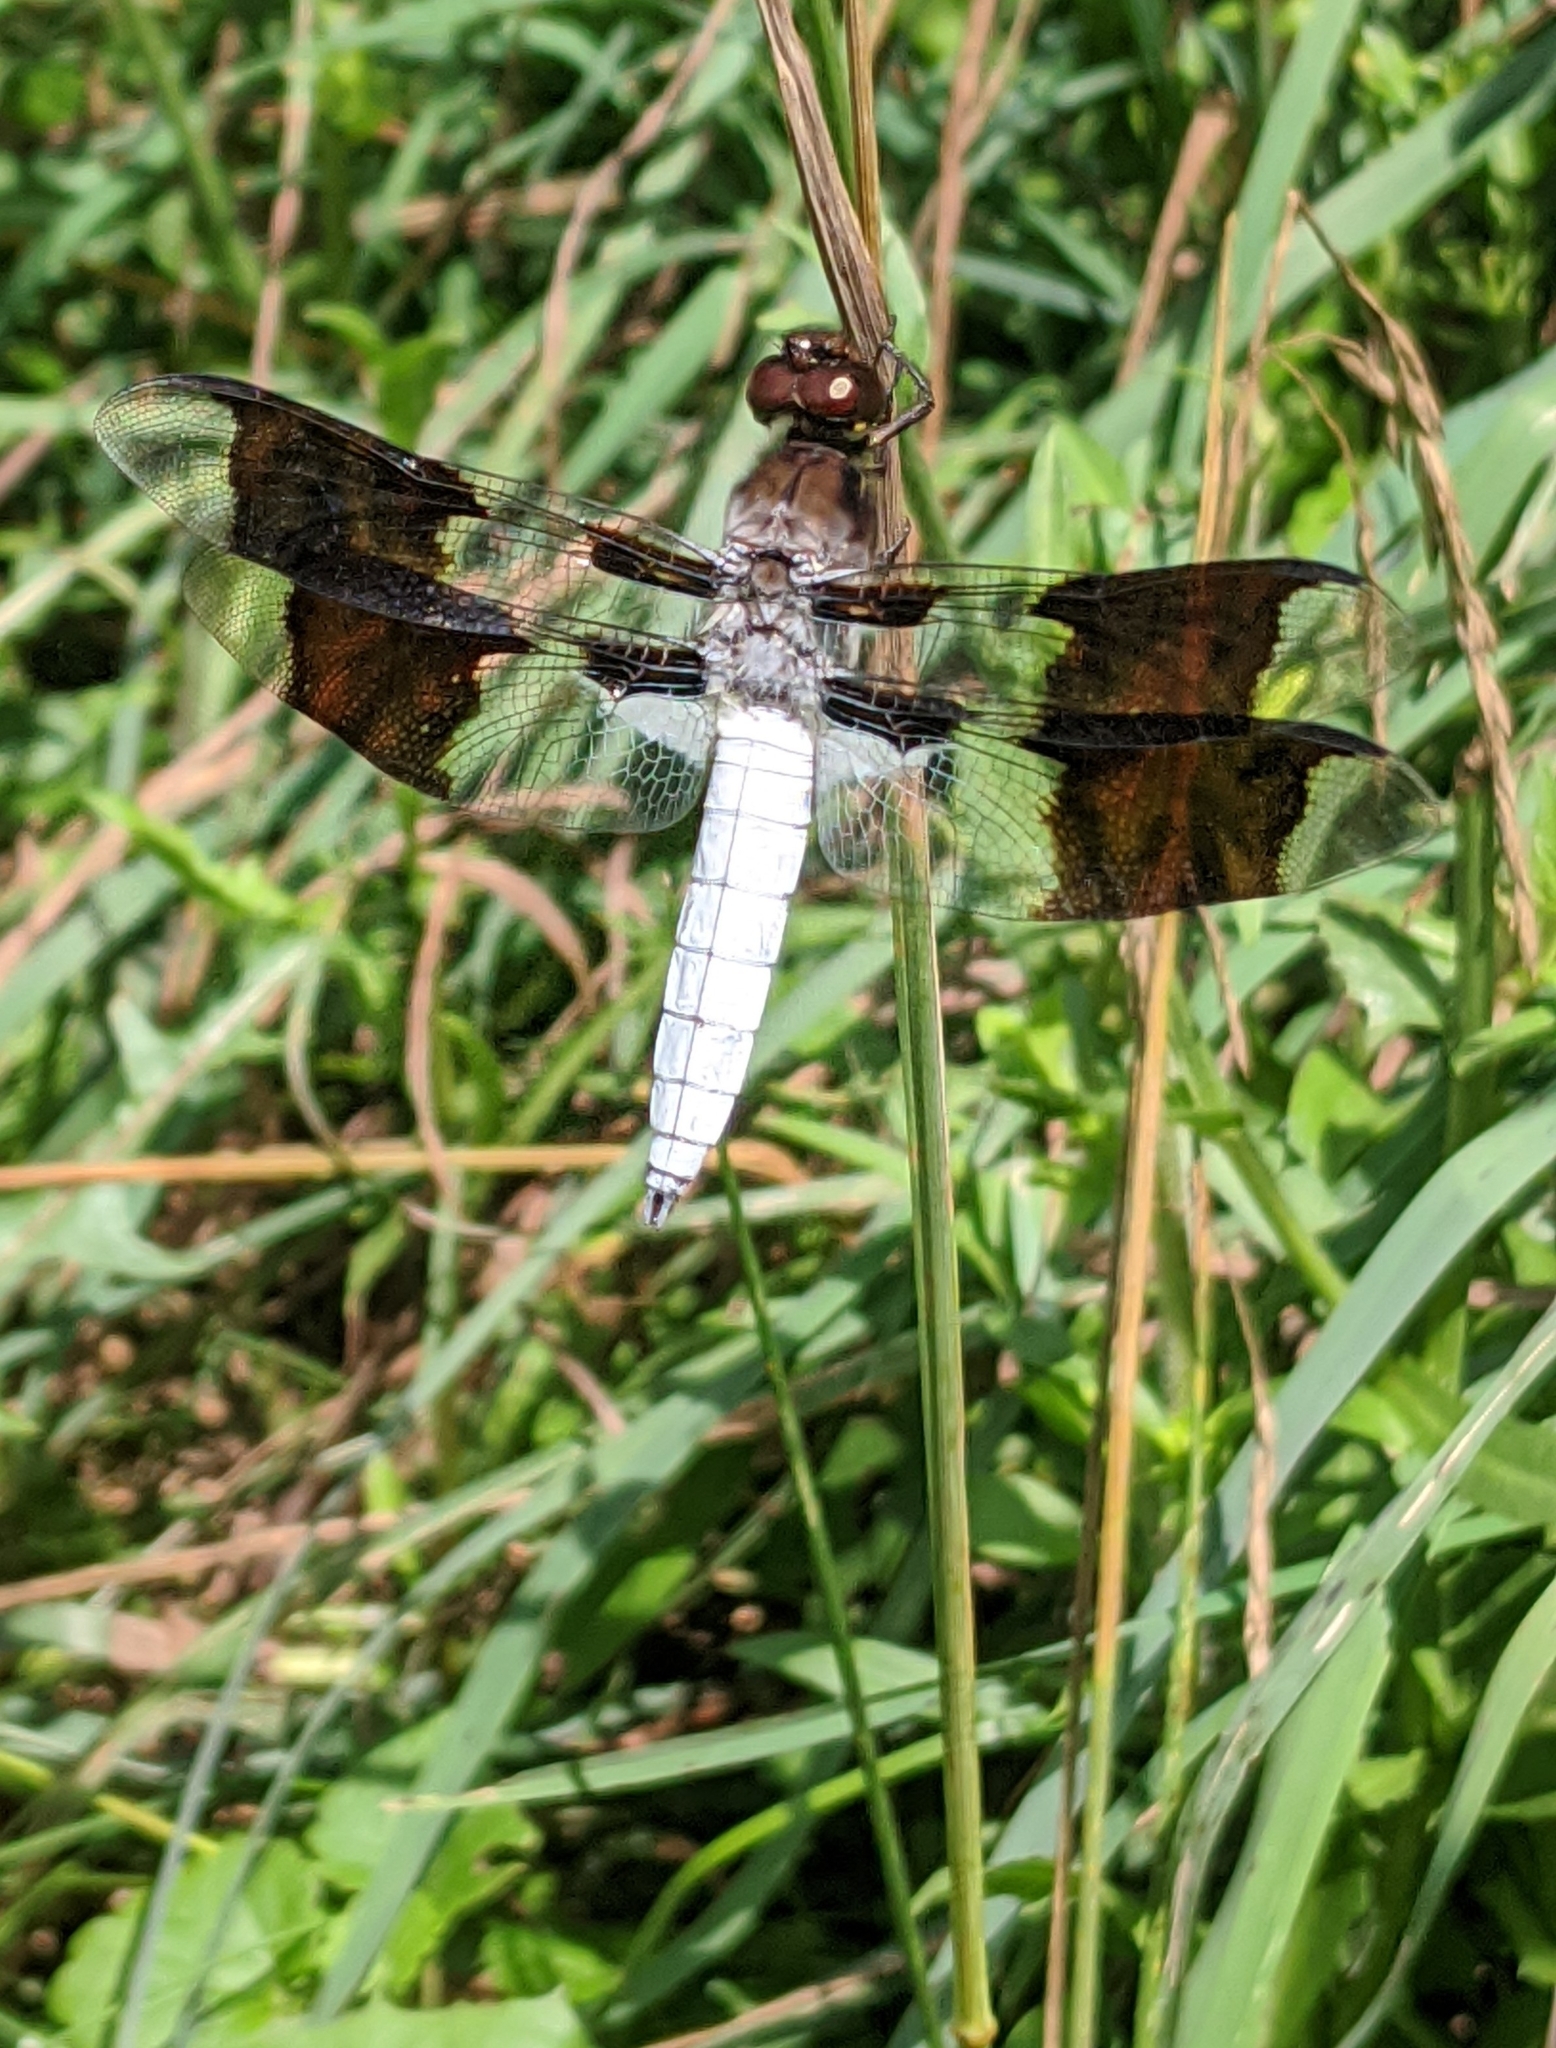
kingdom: Animalia
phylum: Arthropoda
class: Insecta
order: Odonata
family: Libellulidae
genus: Plathemis
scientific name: Plathemis lydia
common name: Common whitetail
